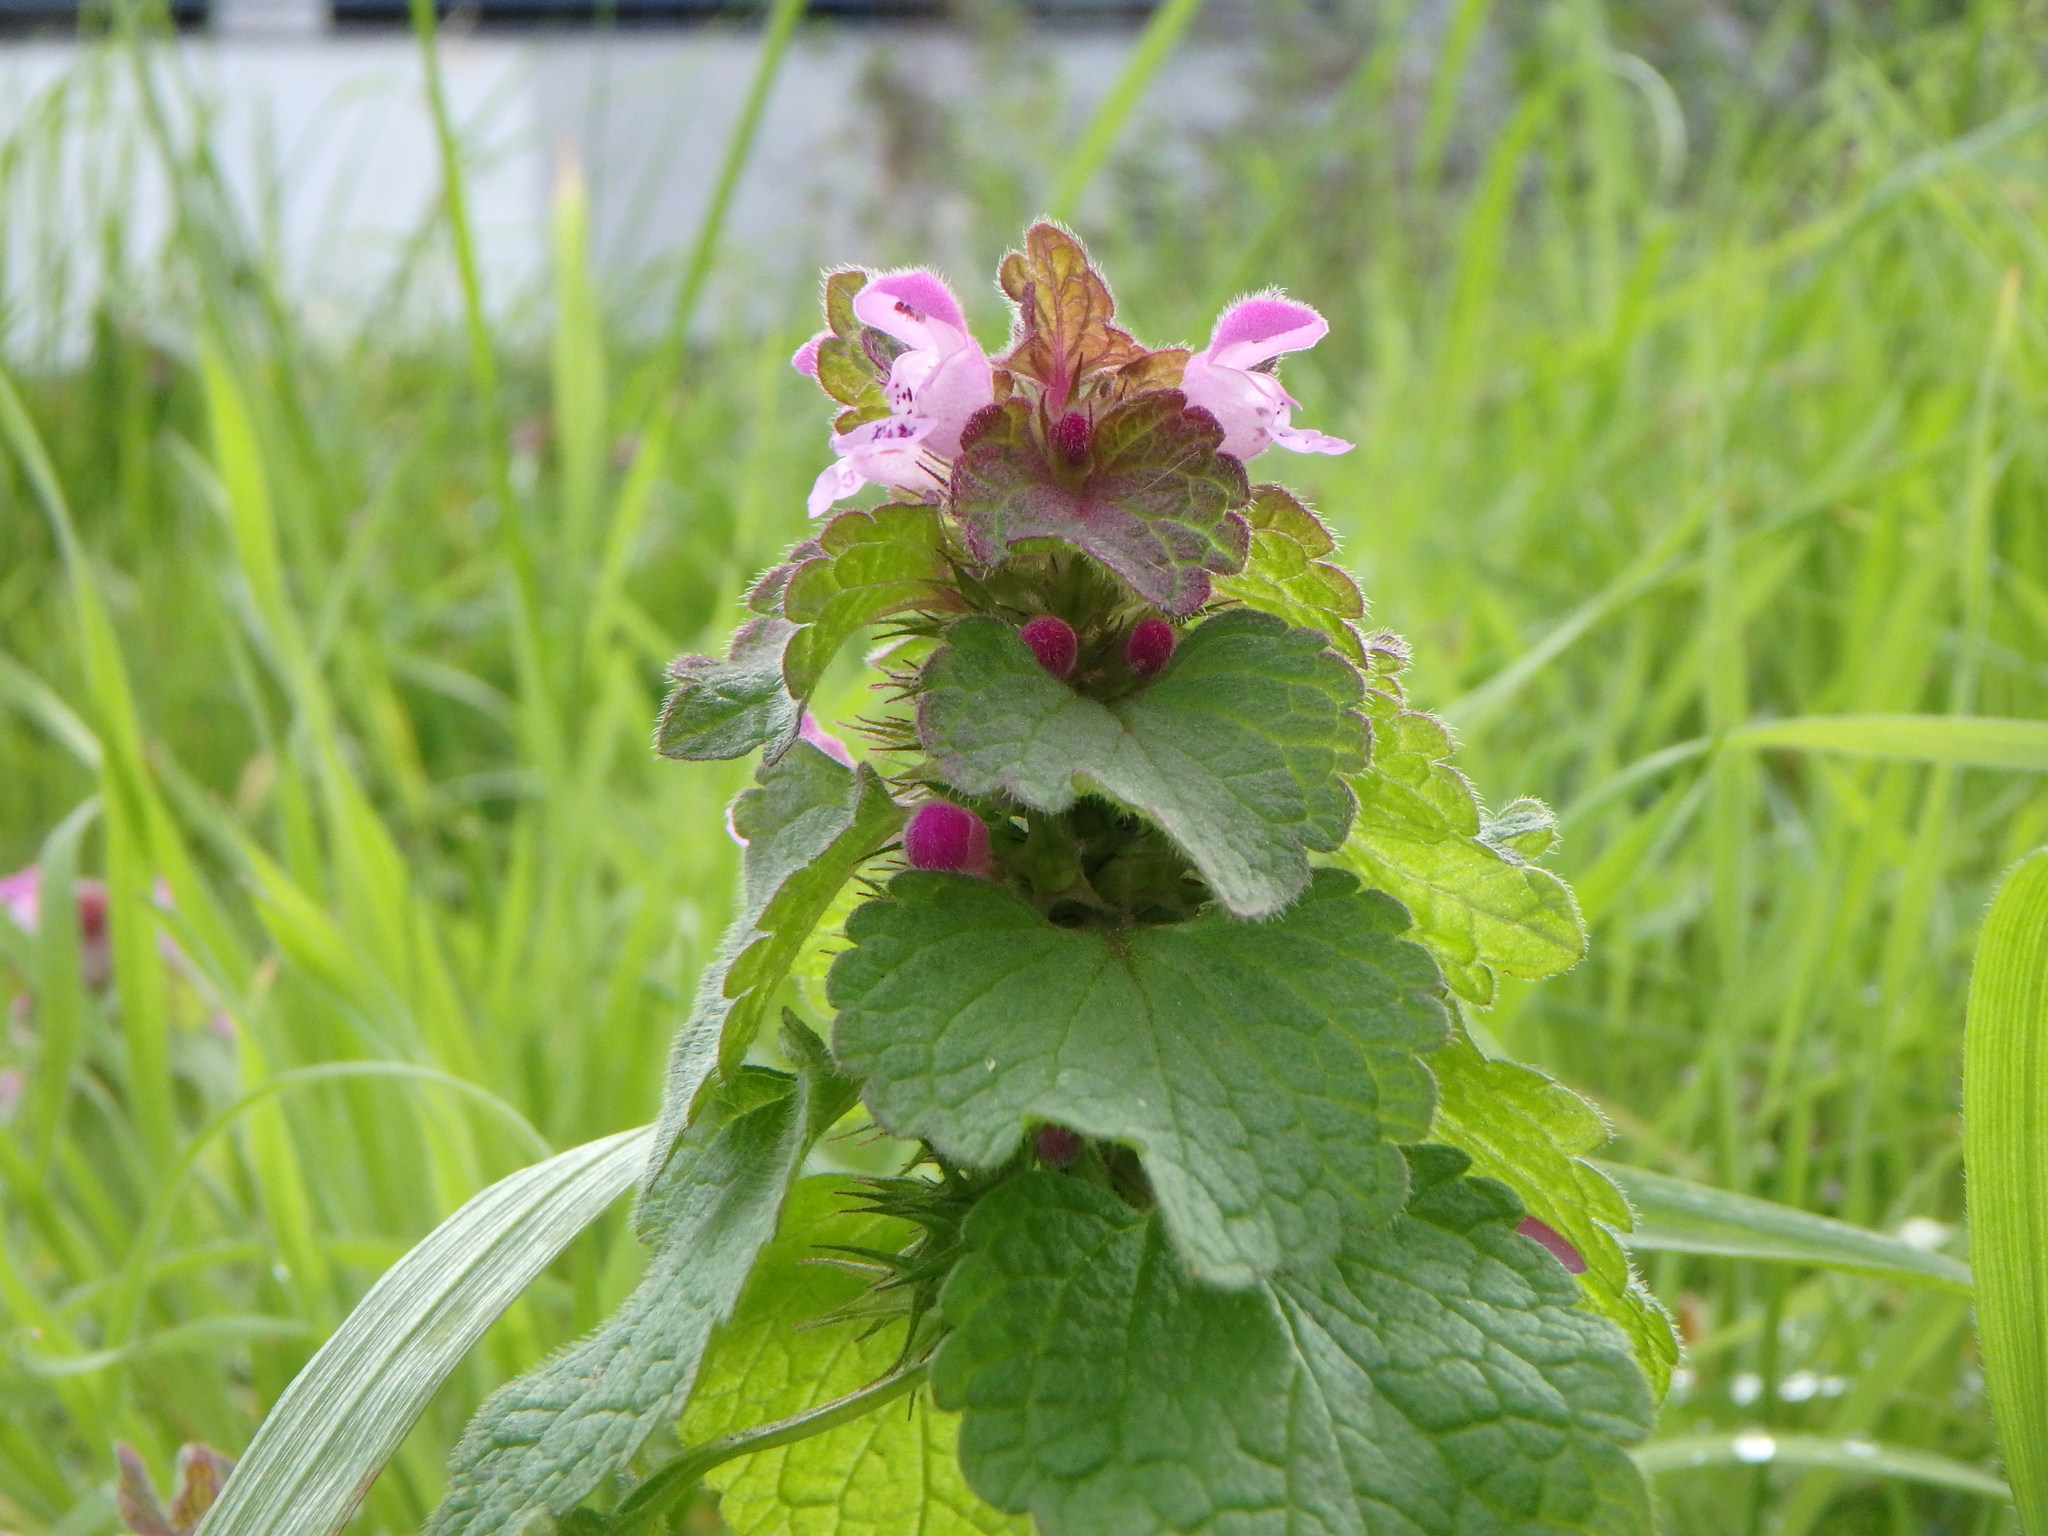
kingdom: Plantae
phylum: Tracheophyta
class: Magnoliopsida
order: Lamiales
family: Lamiaceae
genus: Lamium
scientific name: Lamium purpureum
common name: Red dead-nettle
